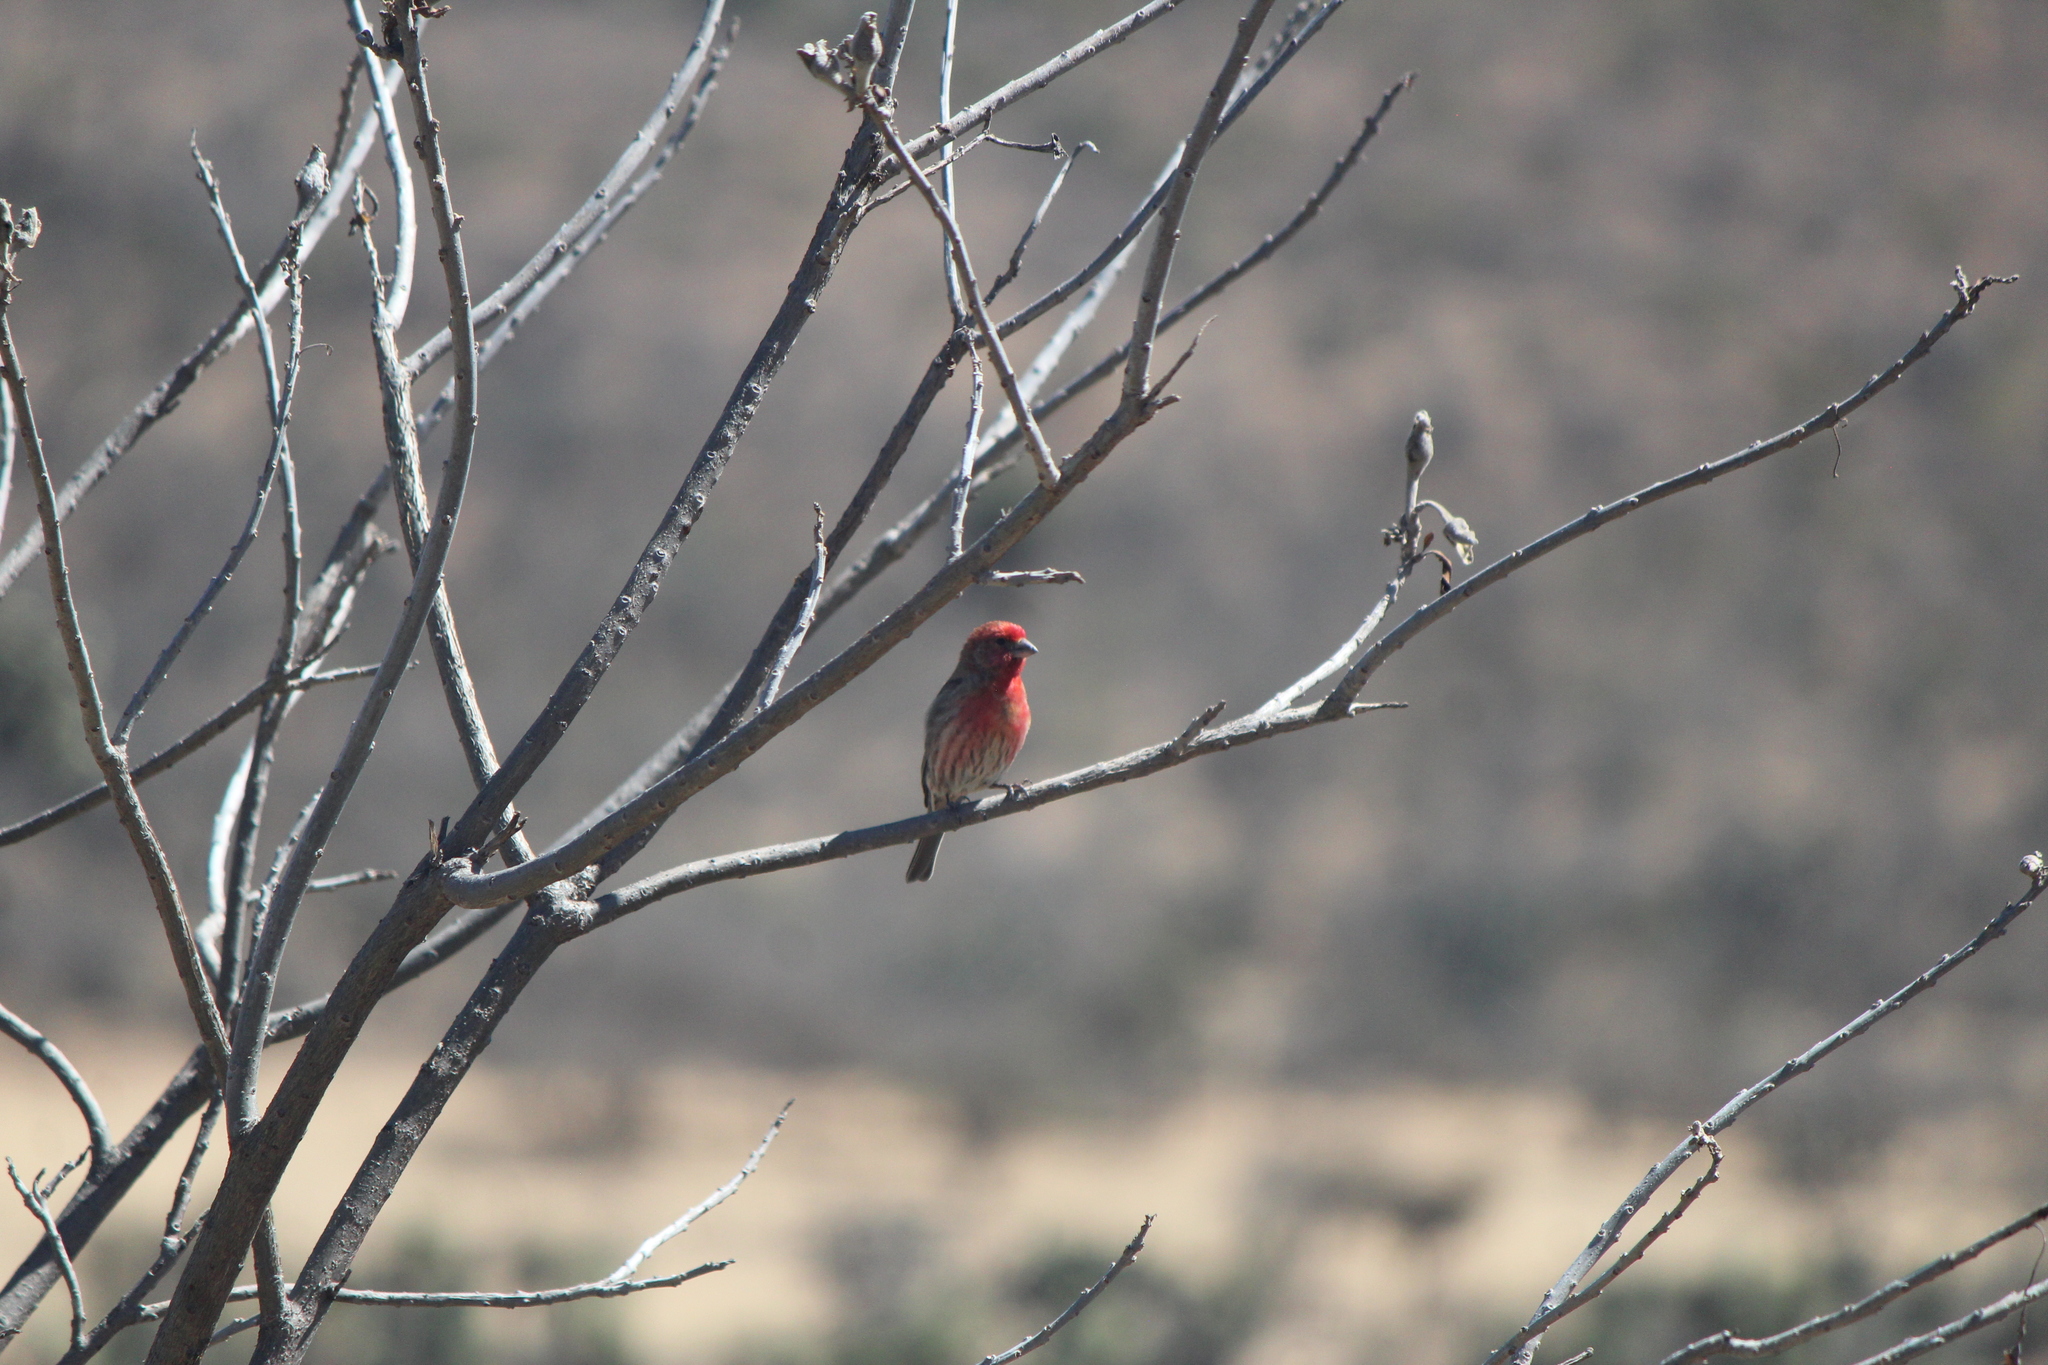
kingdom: Animalia
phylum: Chordata
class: Aves
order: Passeriformes
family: Fringillidae
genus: Haemorhous
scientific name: Haemorhous mexicanus
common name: House finch
